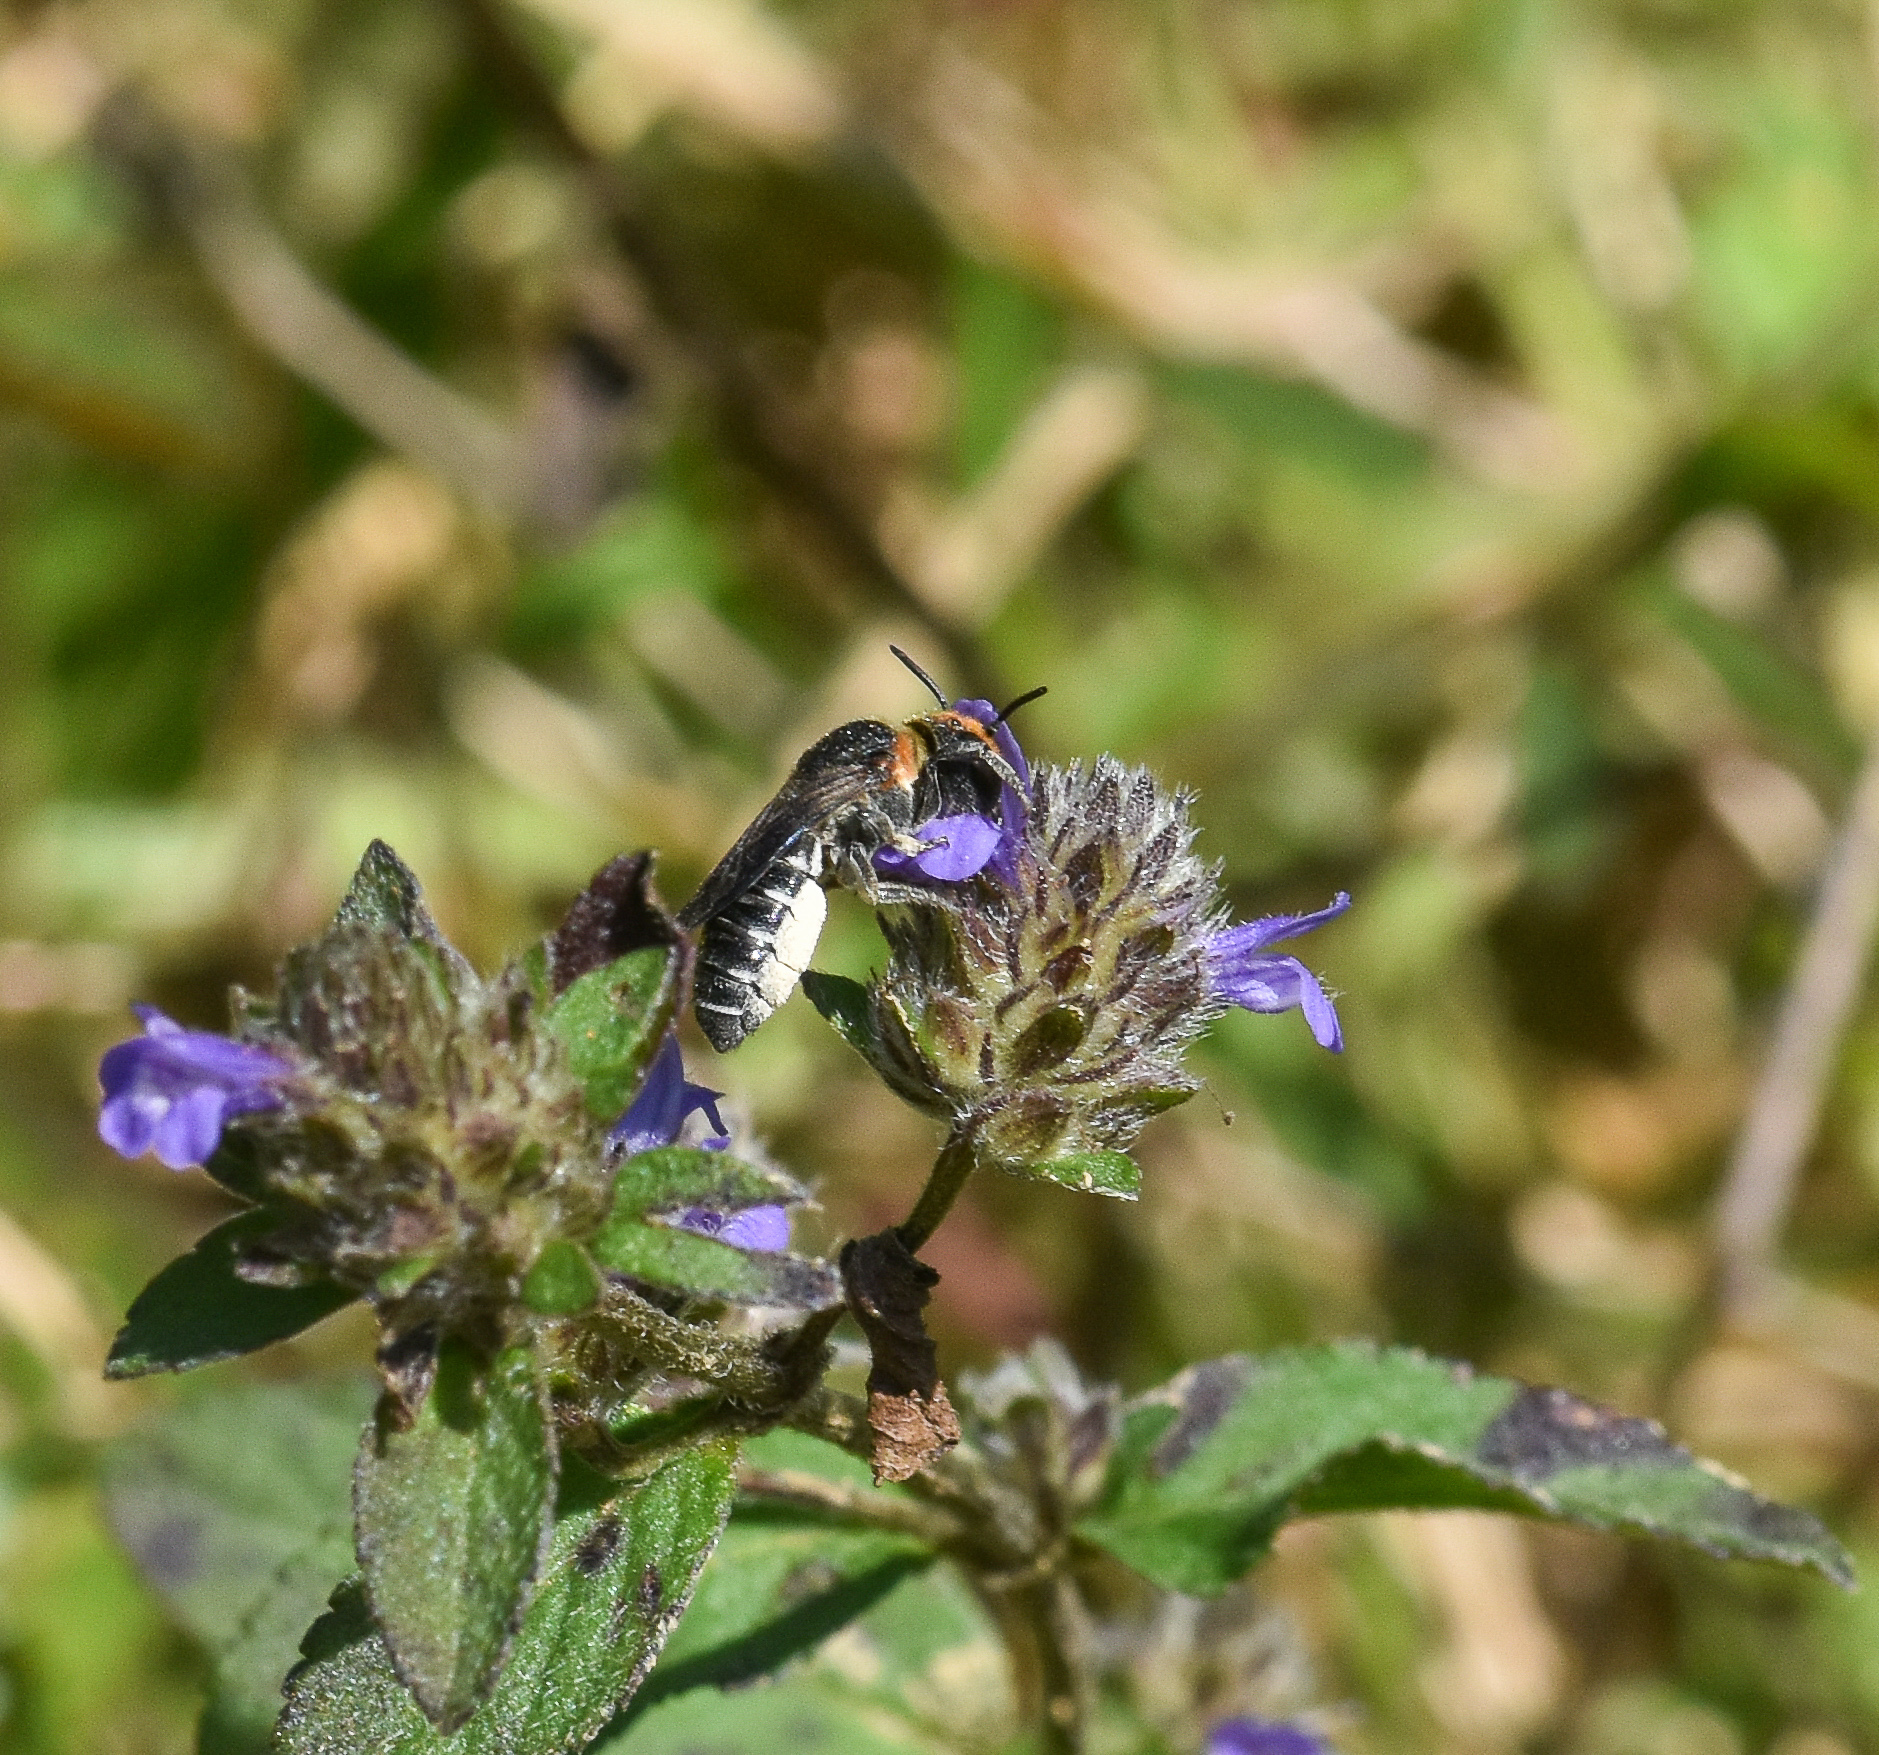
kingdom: Animalia
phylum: Arthropoda
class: Insecta
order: Hymenoptera
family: Megachilidae
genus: Megachile
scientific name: Megachile faceta
